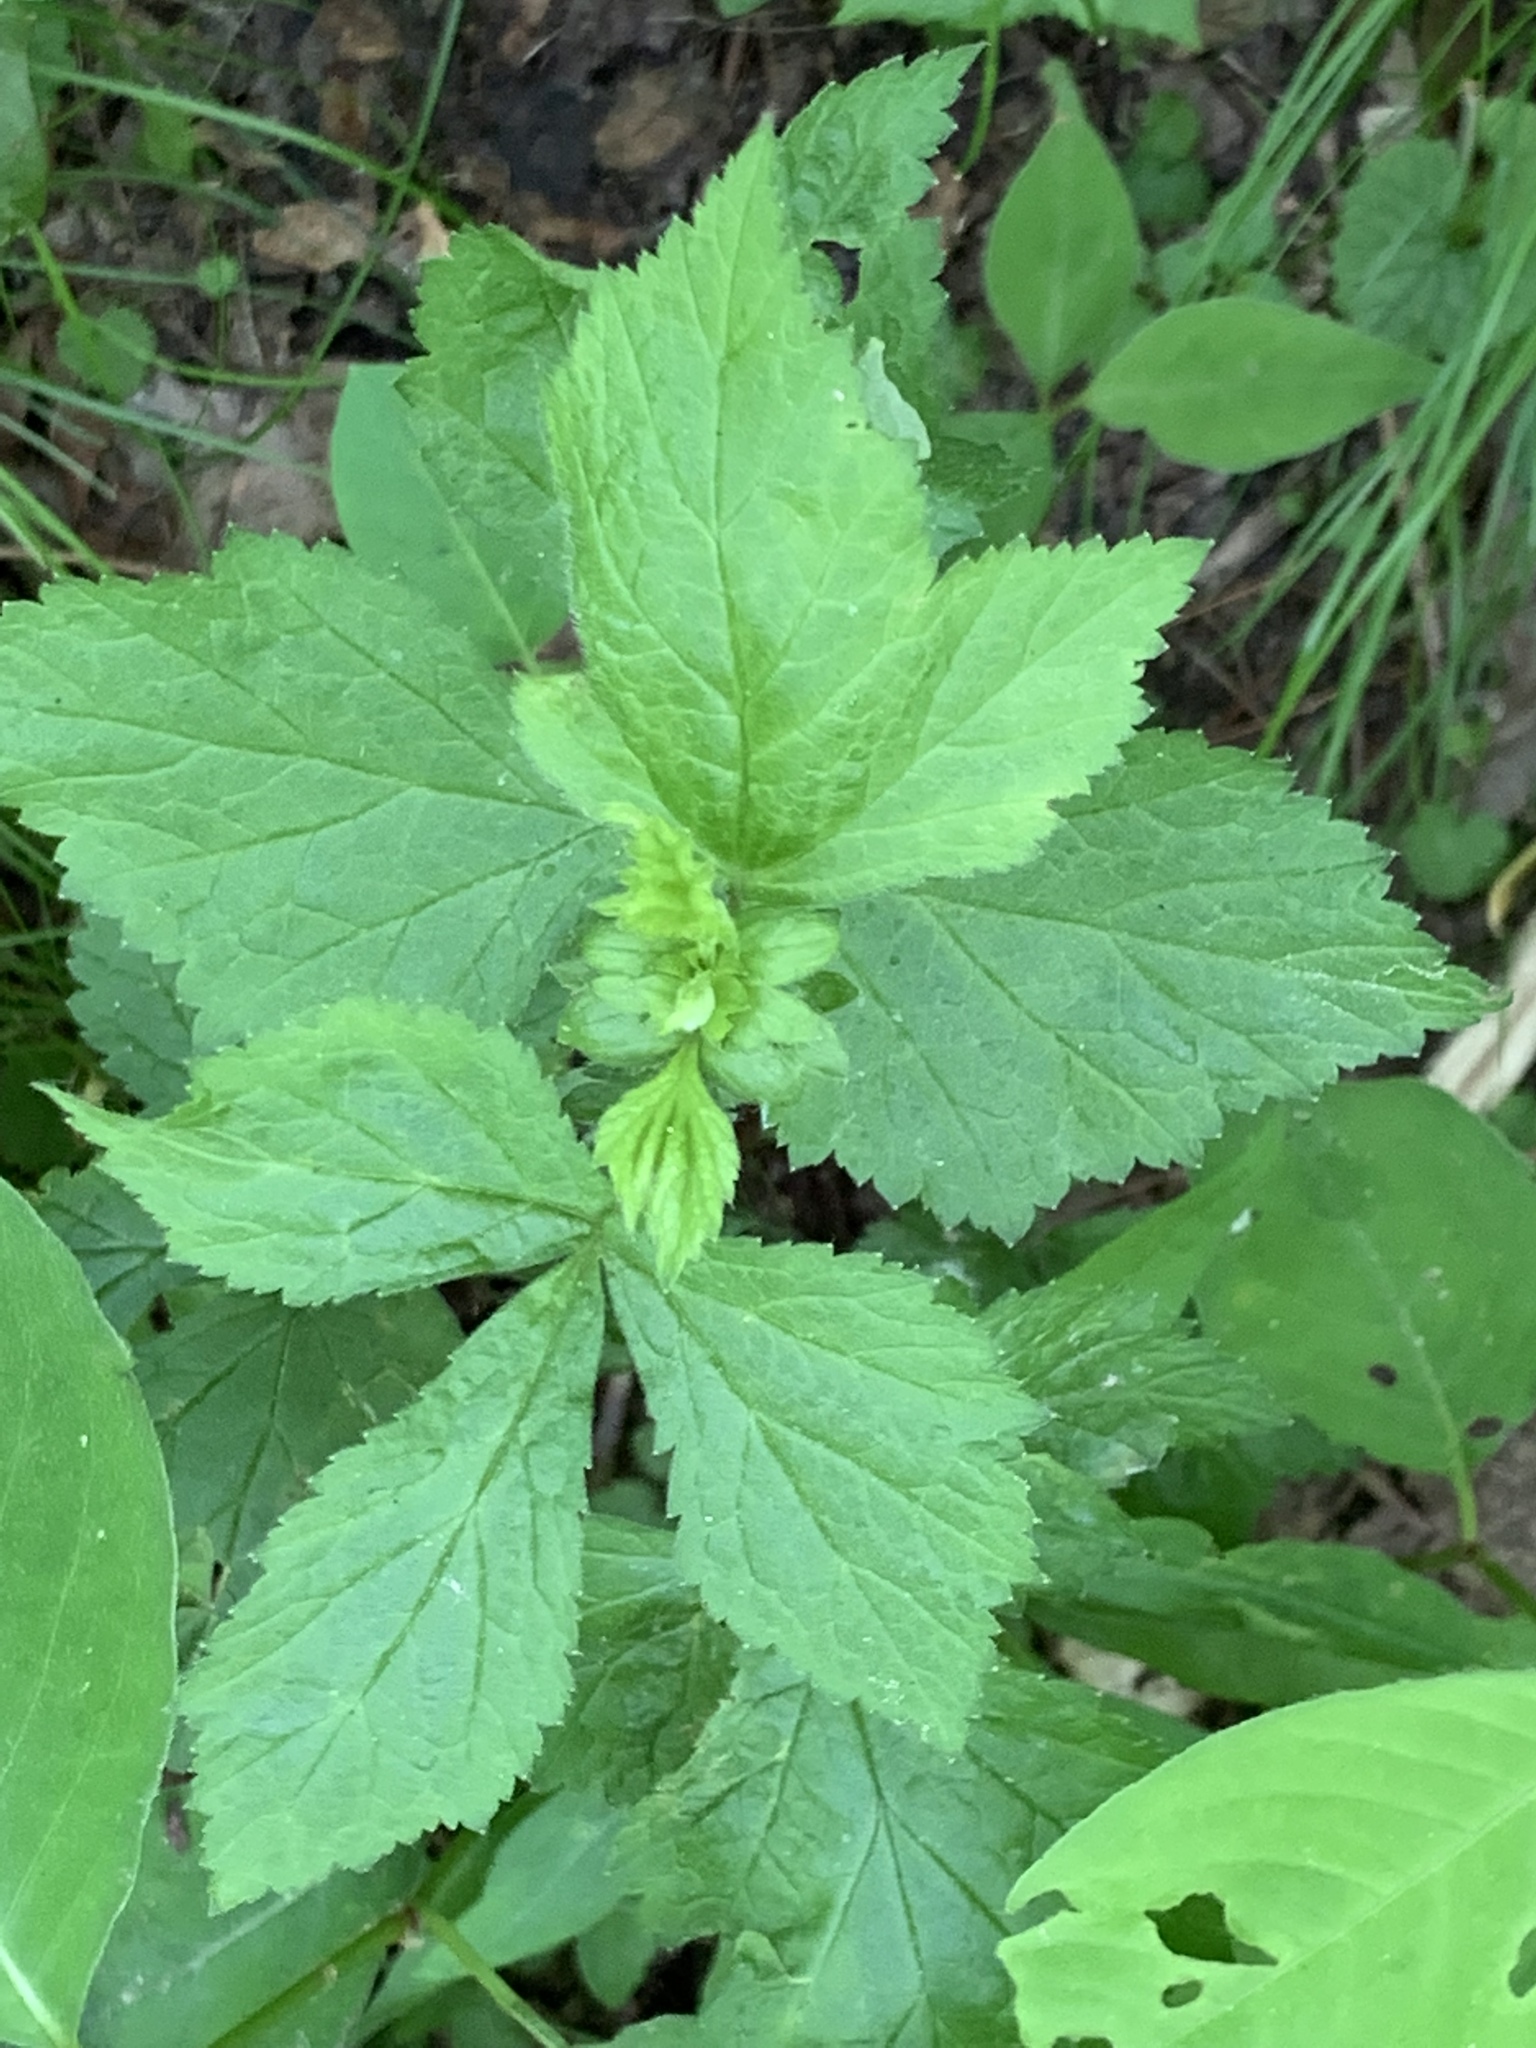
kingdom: Plantae
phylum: Tracheophyta
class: Magnoliopsida
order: Rosales
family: Rosaceae
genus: Geum
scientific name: Geum canadense
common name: White avens
